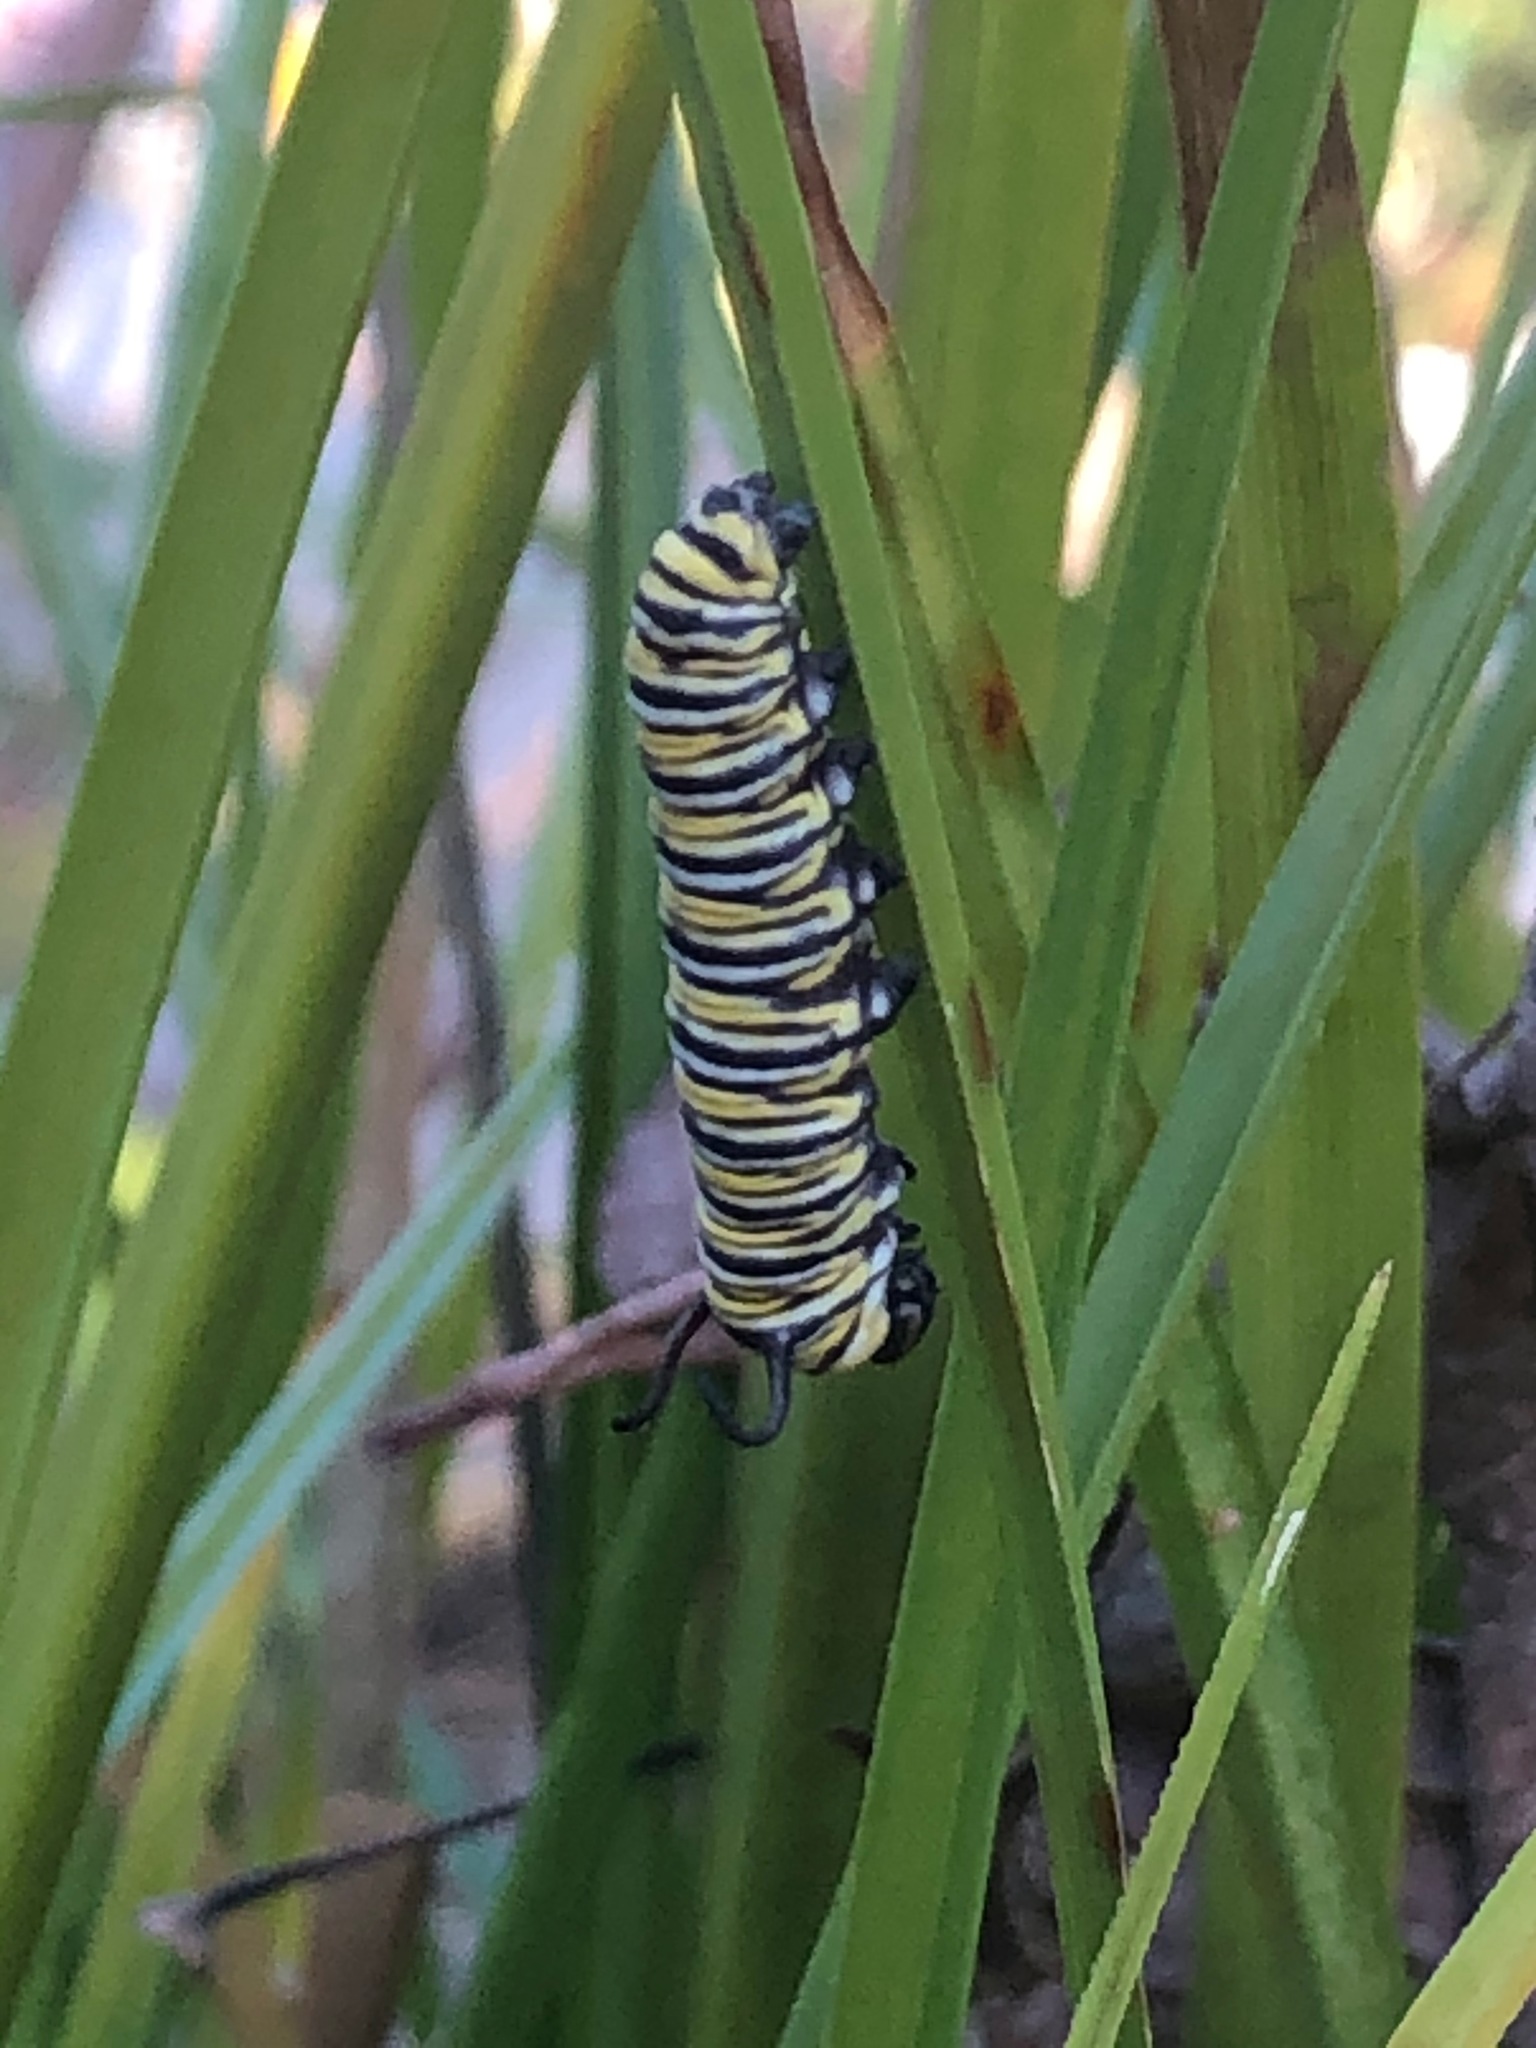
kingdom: Animalia
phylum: Arthropoda
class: Insecta
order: Lepidoptera
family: Nymphalidae
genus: Danaus
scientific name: Danaus plexippus
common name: Monarch
